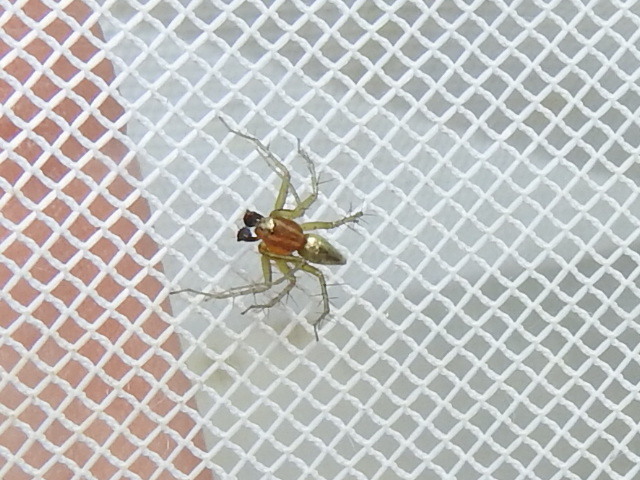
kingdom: Animalia
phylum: Arthropoda
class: Arachnida
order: Araneae
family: Oxyopidae
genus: Oxyopes
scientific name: Oxyopes salticus
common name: Lynx spiders
